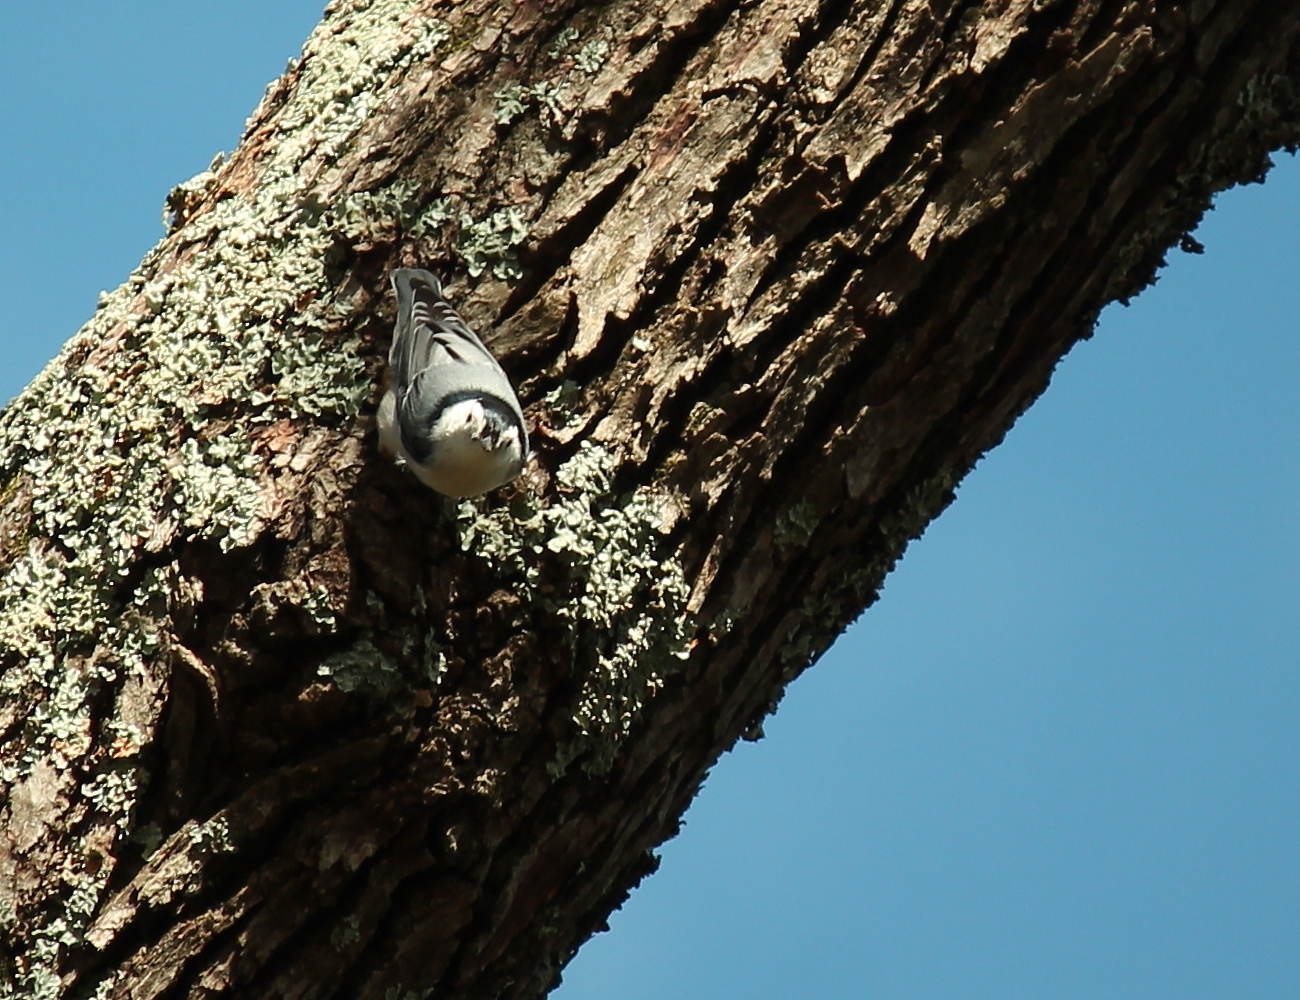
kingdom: Animalia
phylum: Chordata
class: Aves
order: Passeriformes
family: Sittidae
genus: Sitta
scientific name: Sitta carolinensis
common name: White-breasted nuthatch
